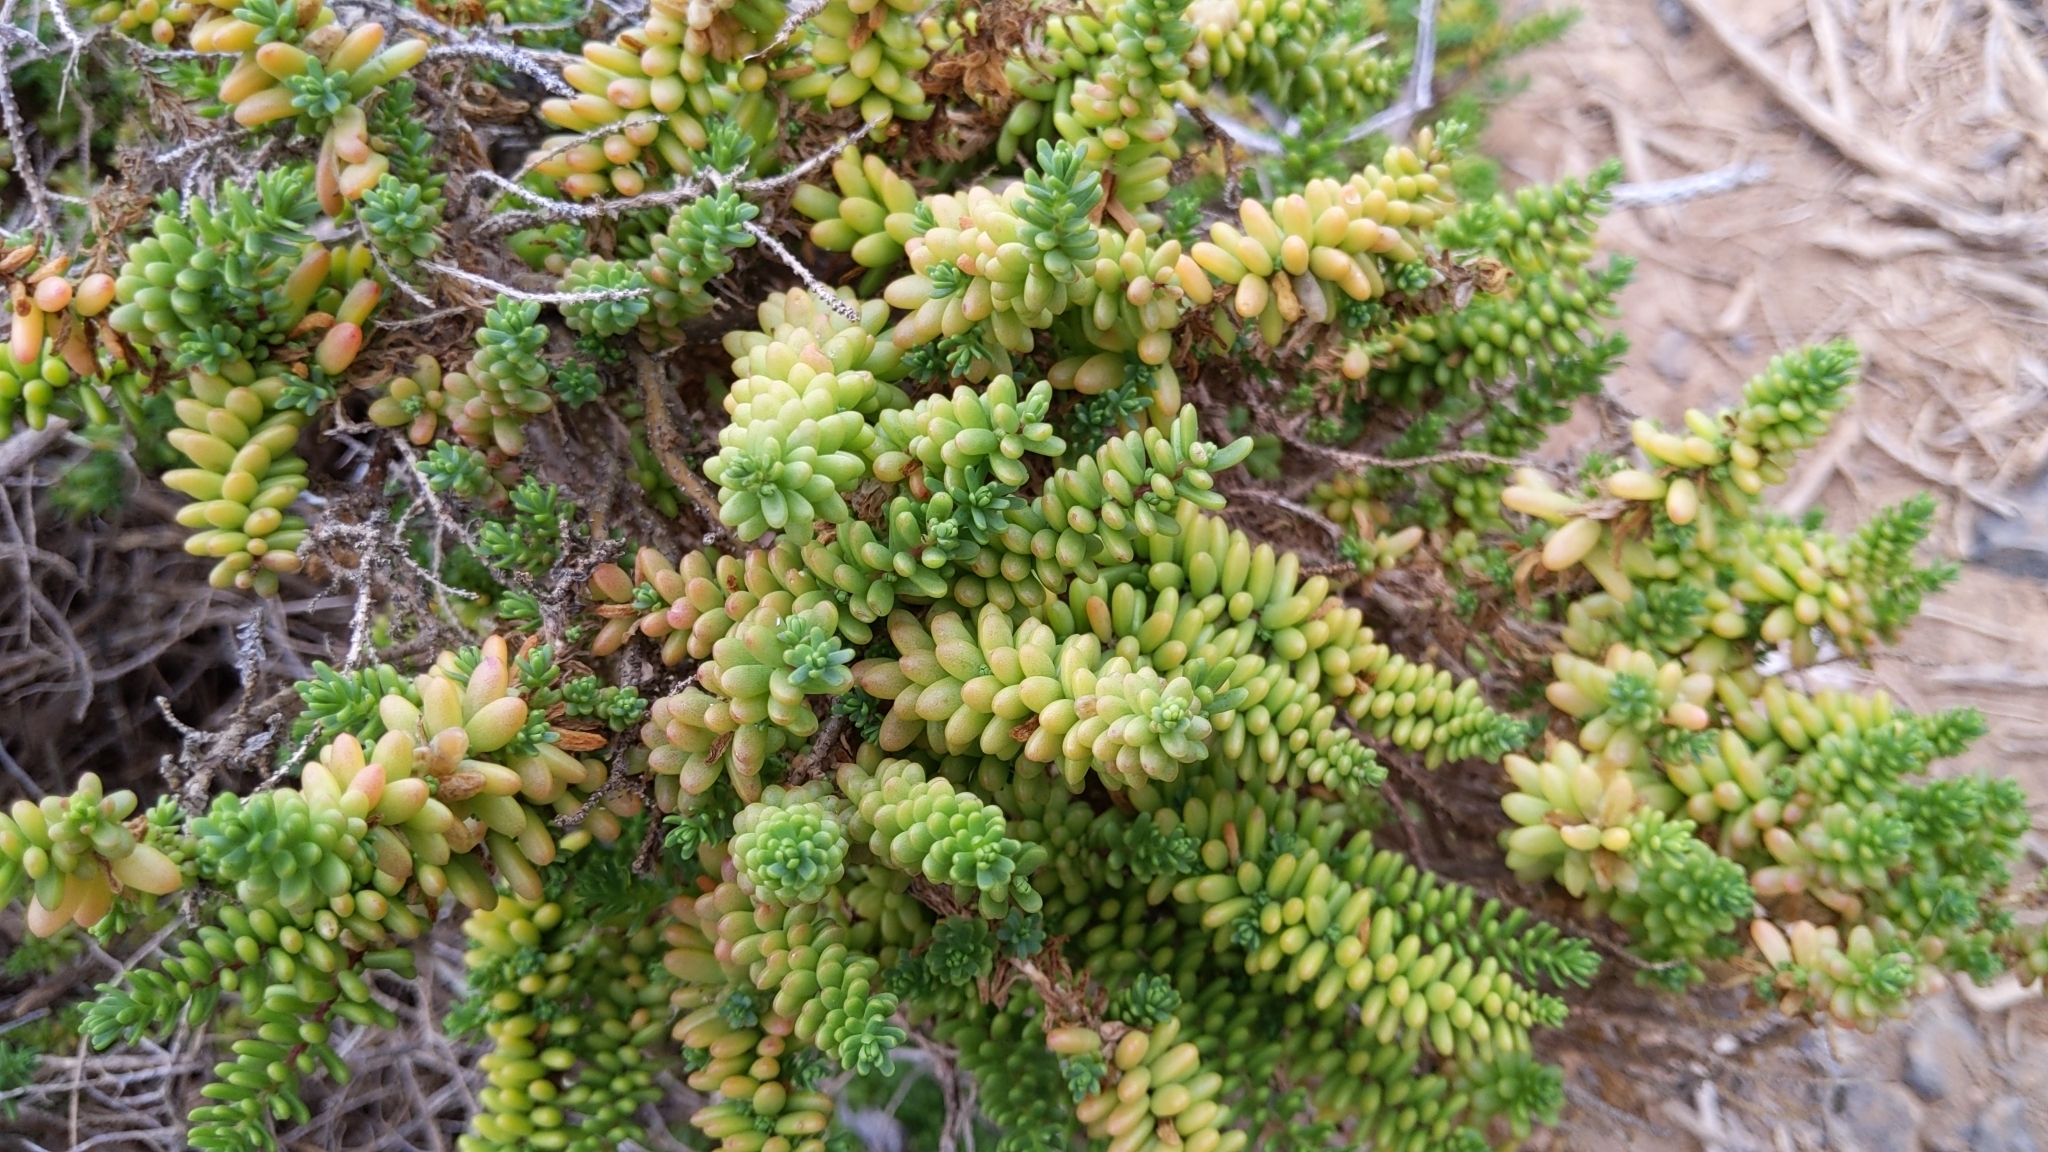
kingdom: Plantae
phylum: Tracheophyta
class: Magnoliopsida
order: Caryophyllales
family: Amaranthaceae
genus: Suaeda
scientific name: Suaeda vera
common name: Shrubby sea-blite
